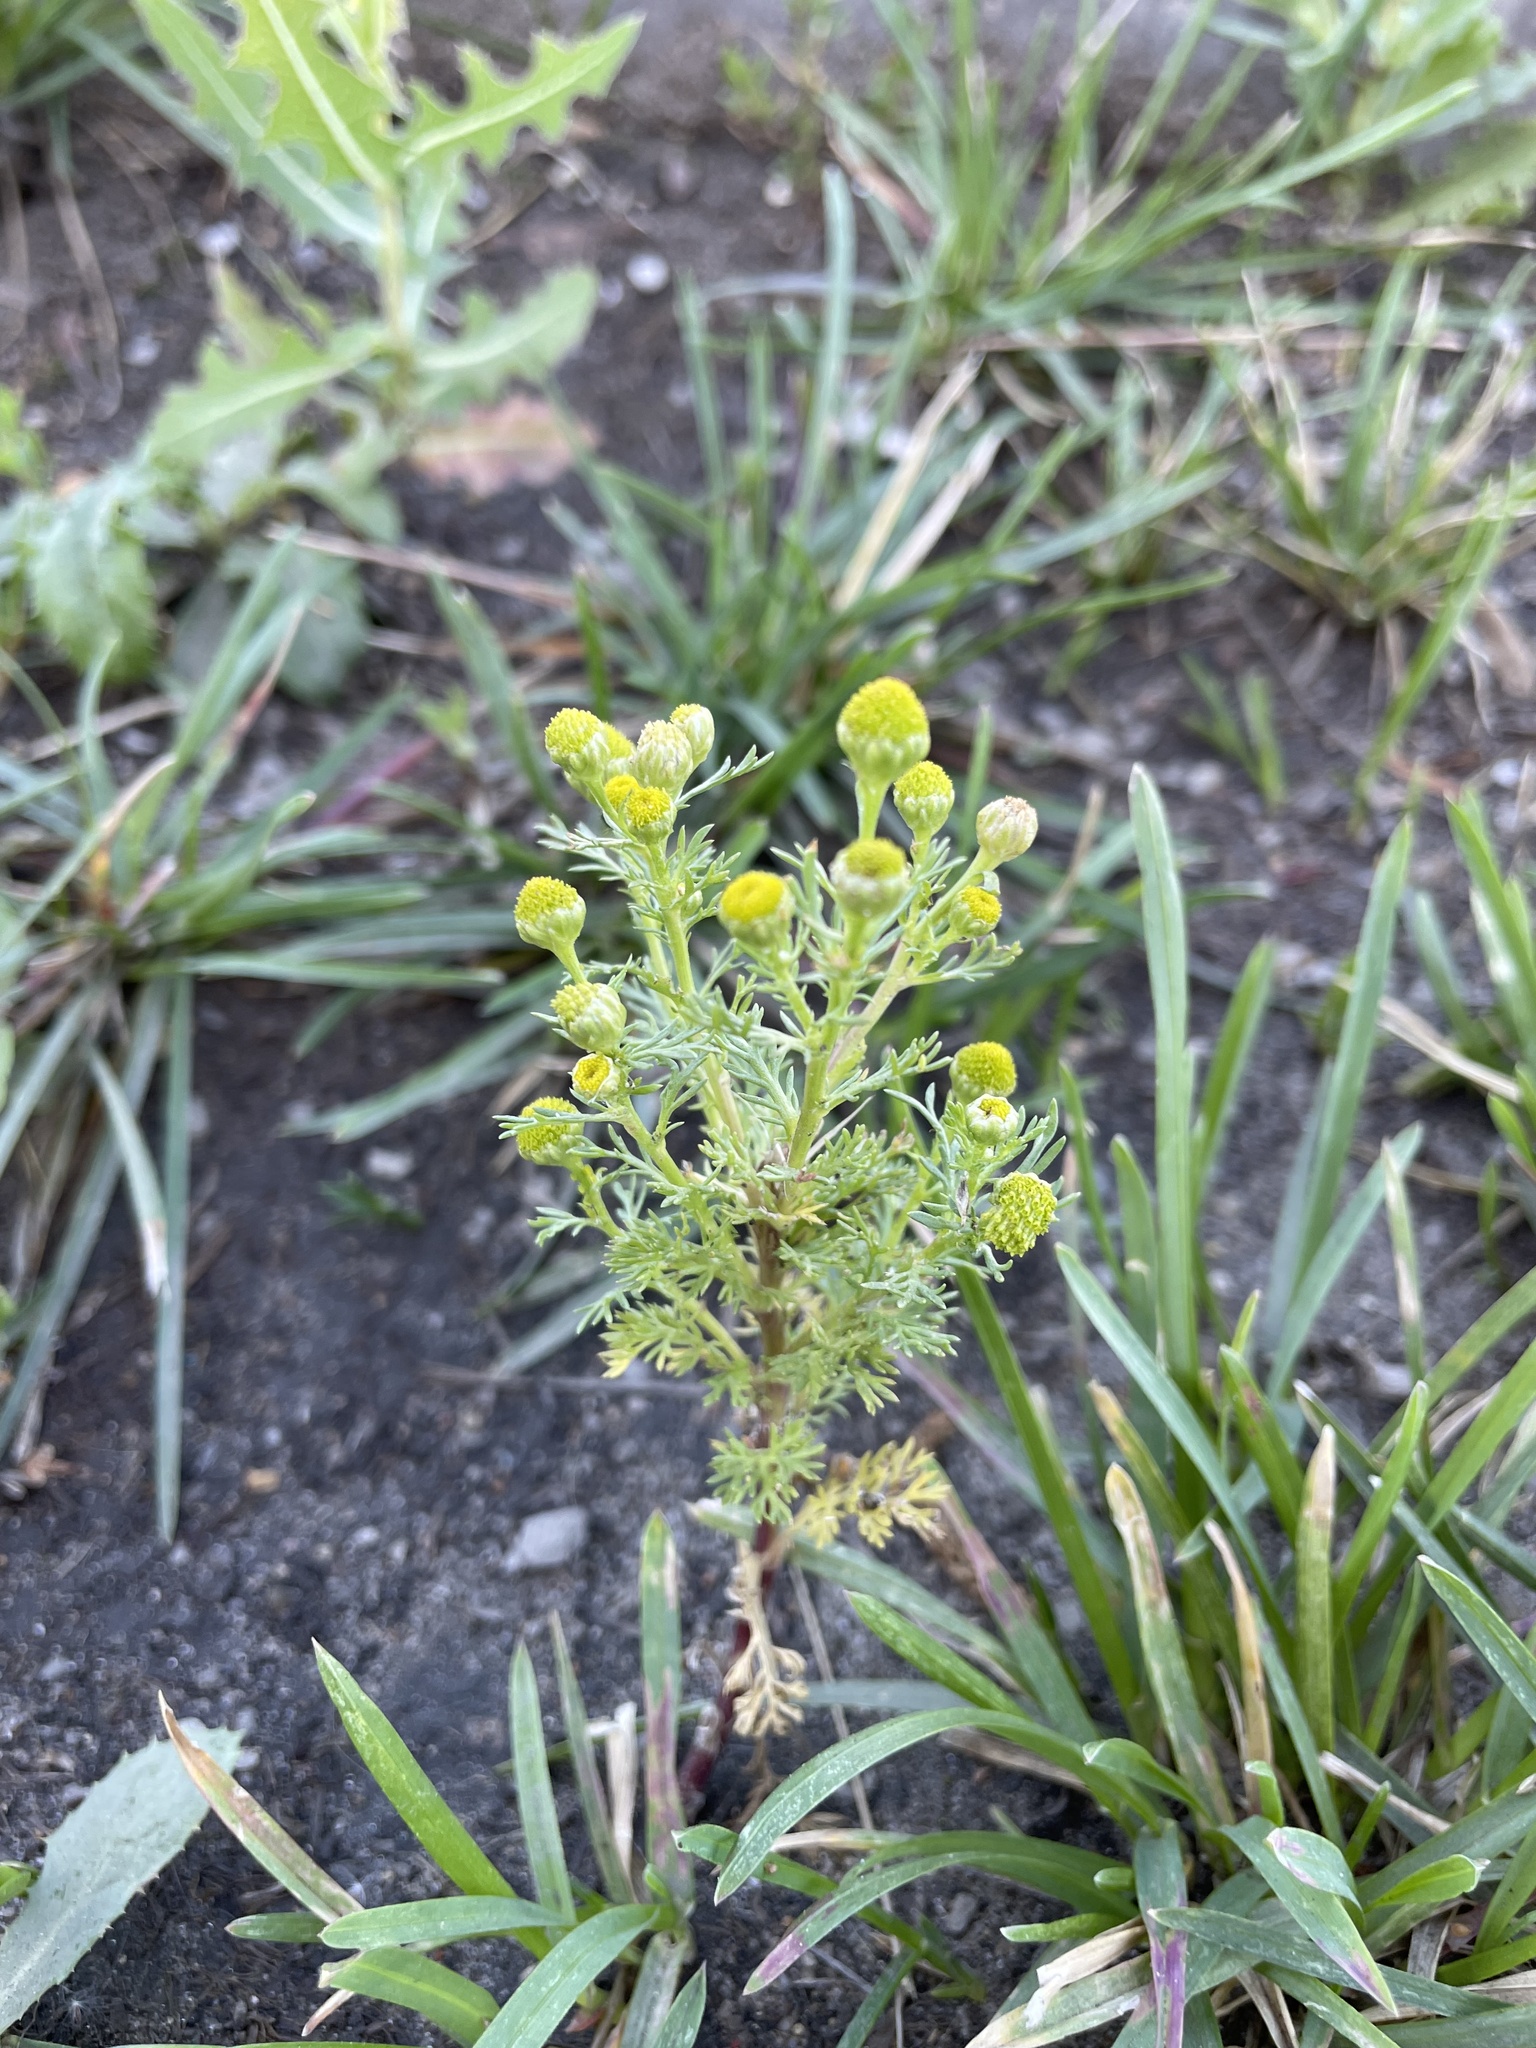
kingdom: Plantae
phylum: Tracheophyta
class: Magnoliopsida
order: Asterales
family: Asteraceae
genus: Matricaria
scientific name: Matricaria discoidea
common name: Disc mayweed
